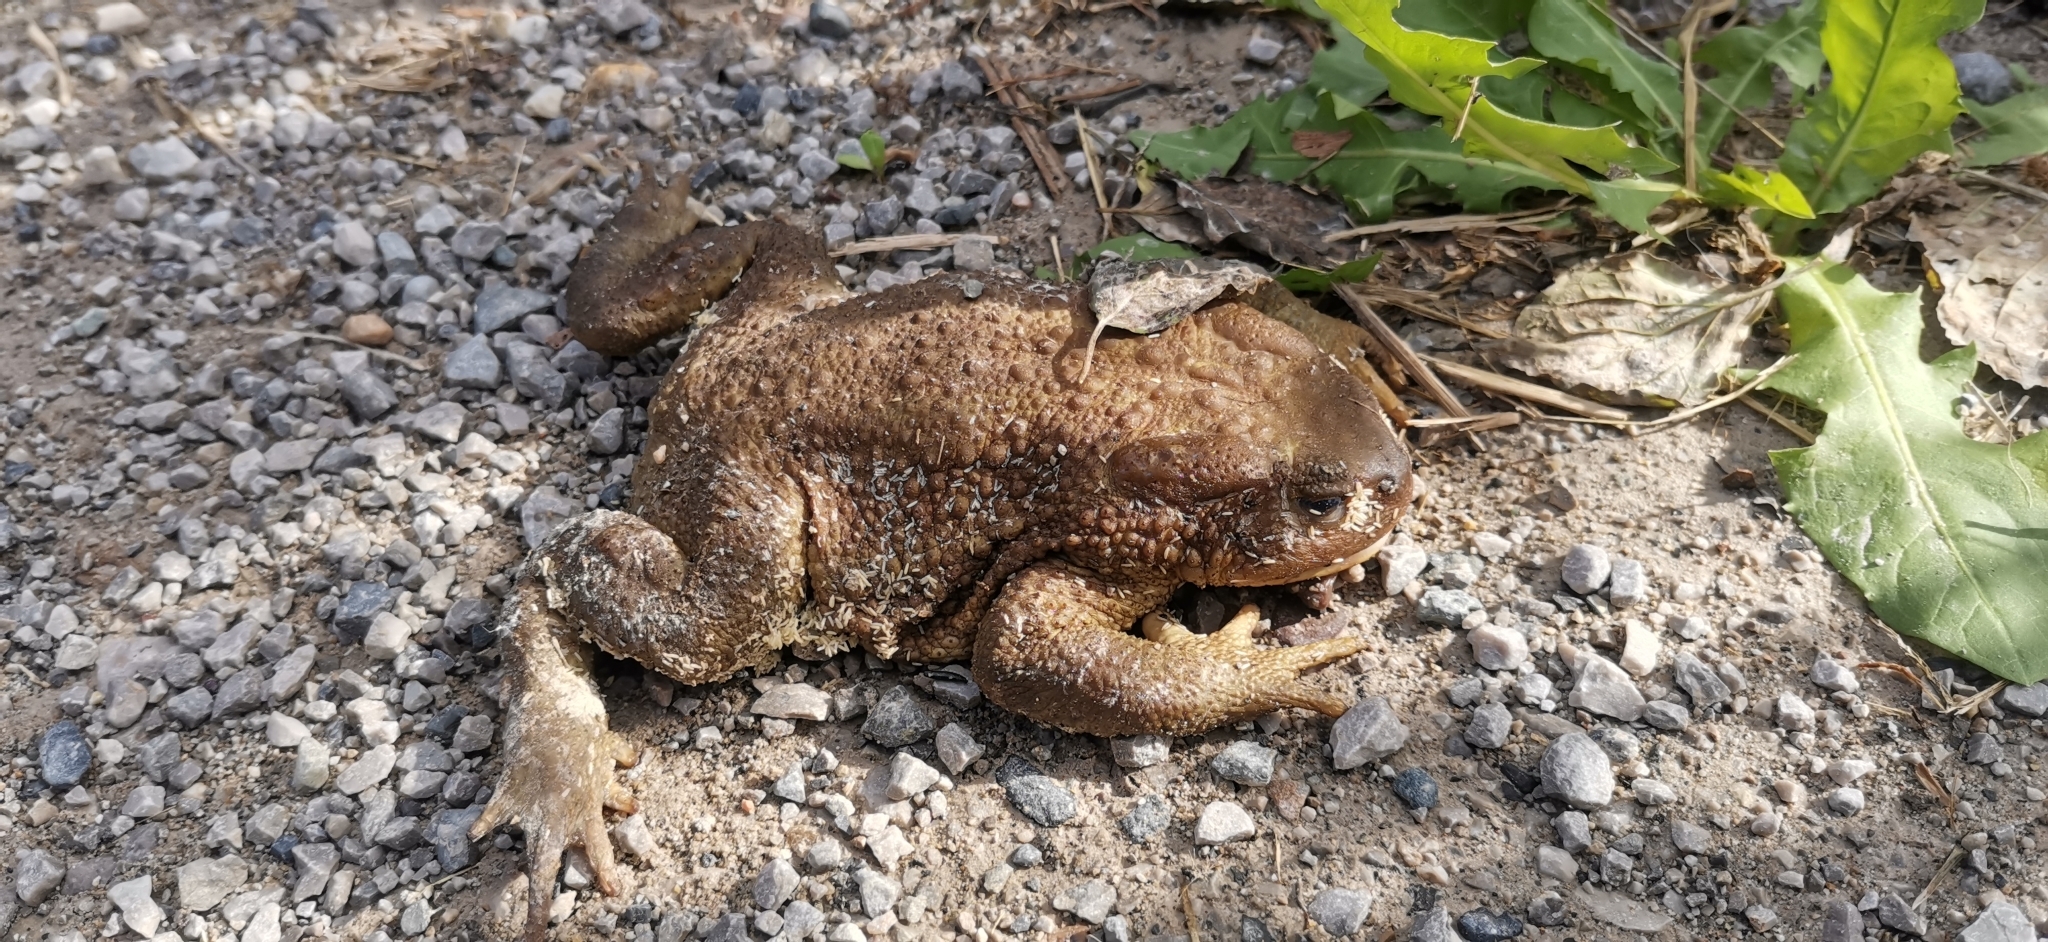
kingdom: Animalia
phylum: Chordata
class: Amphibia
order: Anura
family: Bufonidae
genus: Bufo
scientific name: Bufo bufo
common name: Common toad
